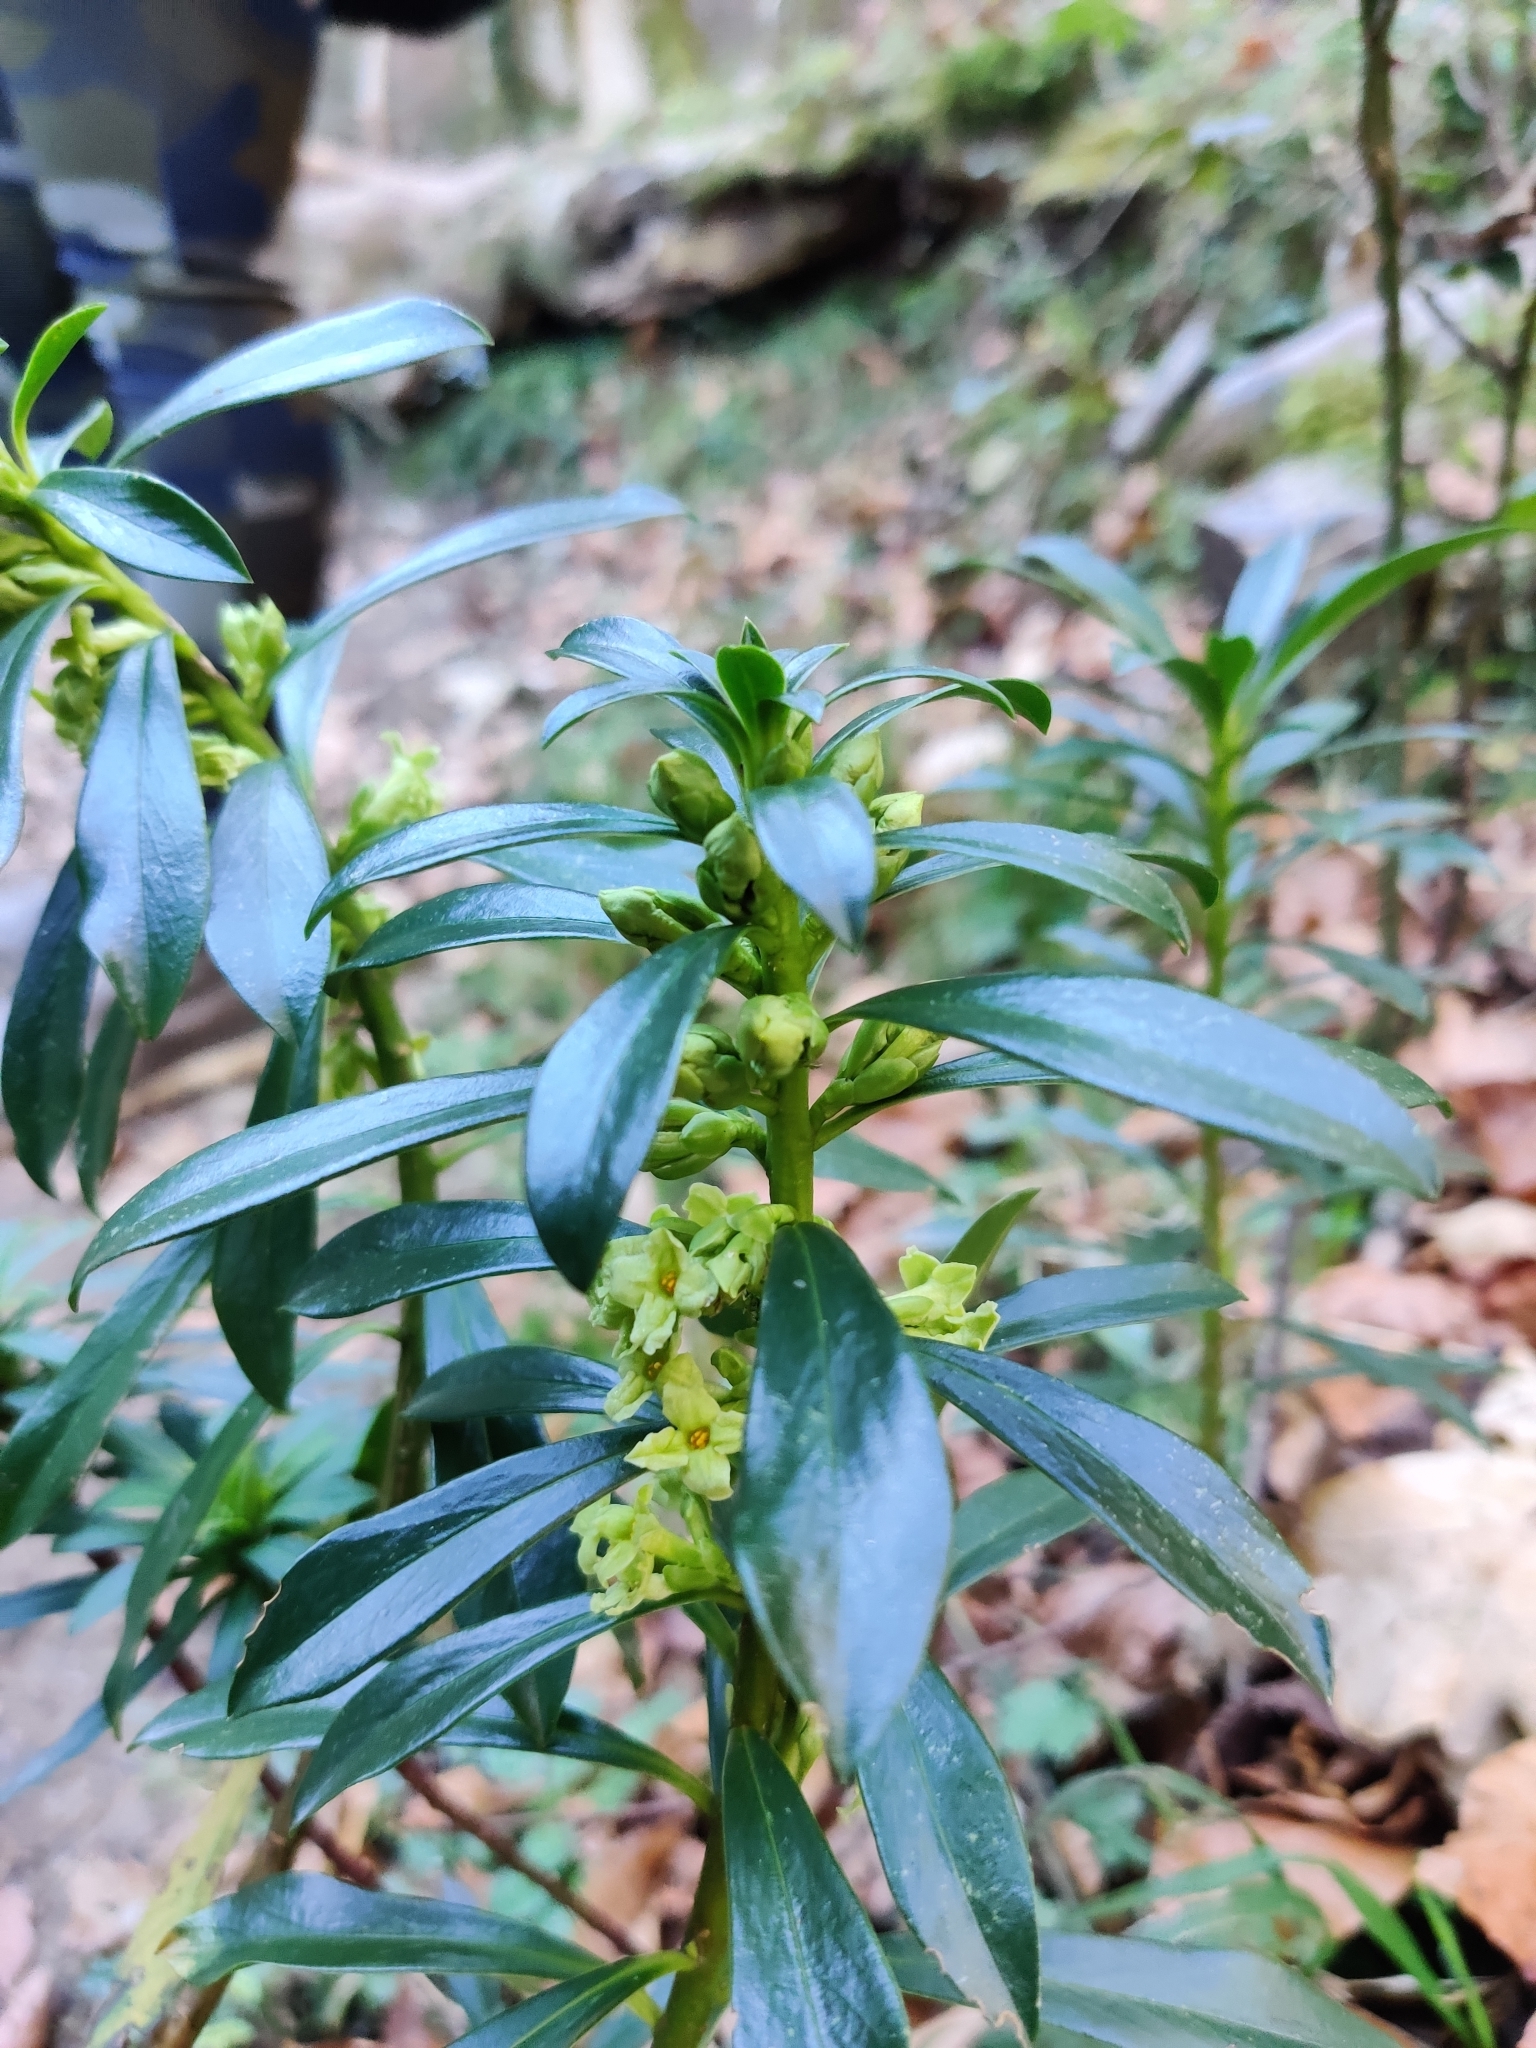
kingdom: Plantae
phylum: Tracheophyta
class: Magnoliopsida
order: Malvales
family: Thymelaeaceae
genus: Daphne
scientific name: Daphne laureola
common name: Spurge-laurel
